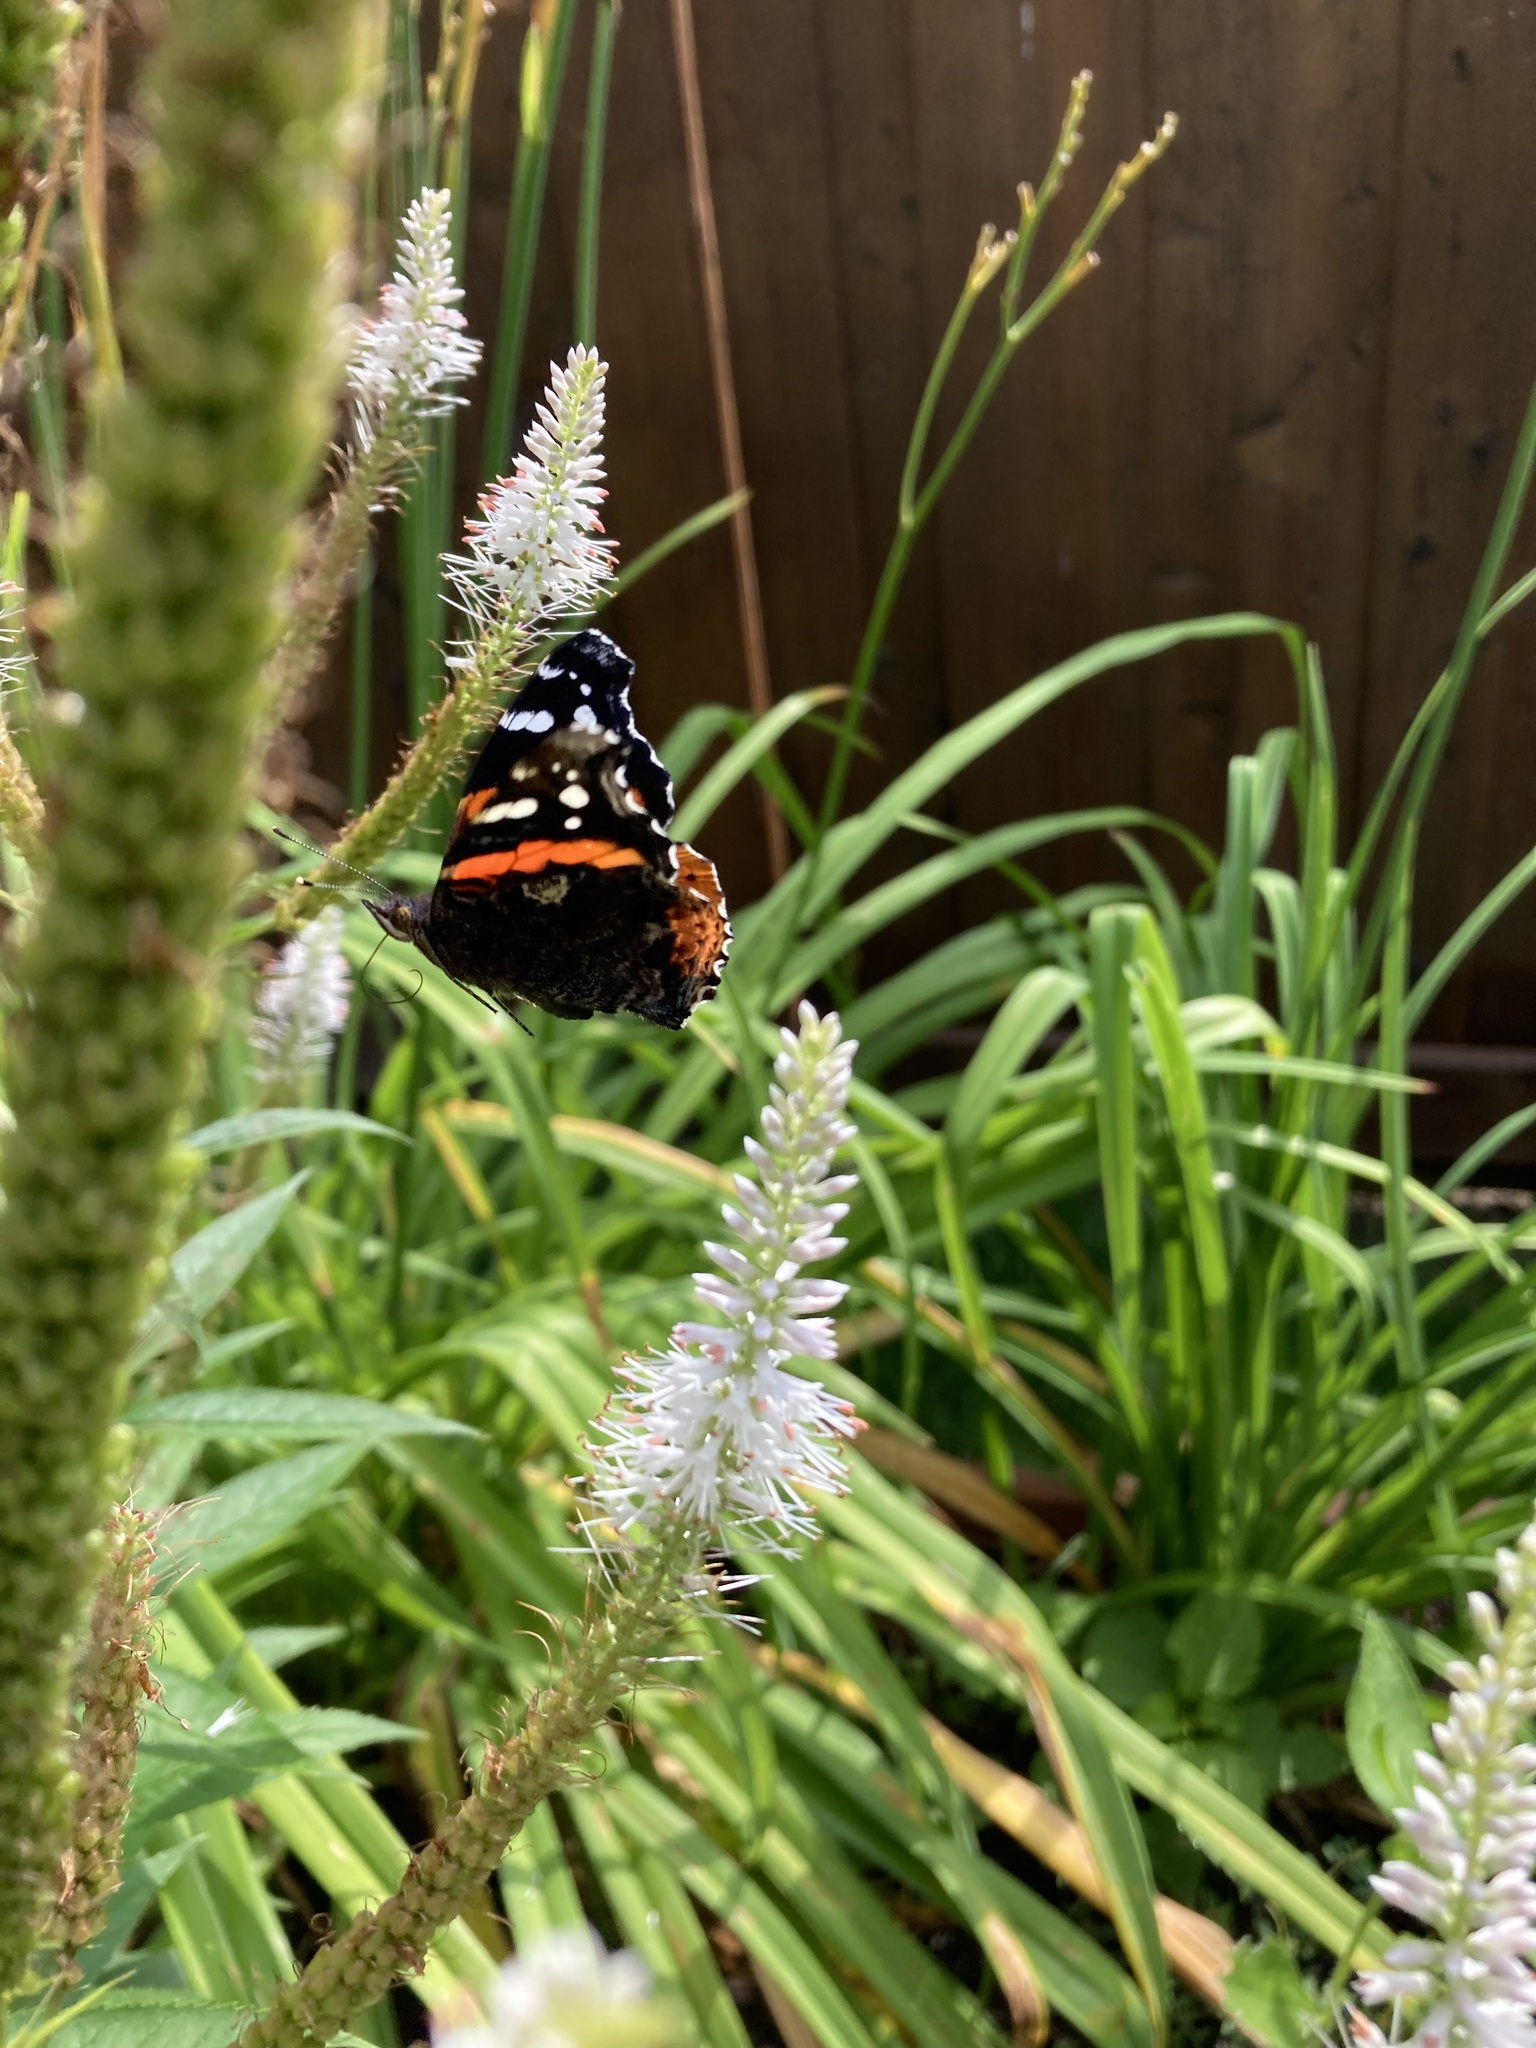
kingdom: Animalia
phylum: Arthropoda
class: Insecta
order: Lepidoptera
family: Nymphalidae
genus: Vanessa
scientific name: Vanessa atalanta
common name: Red admiral
